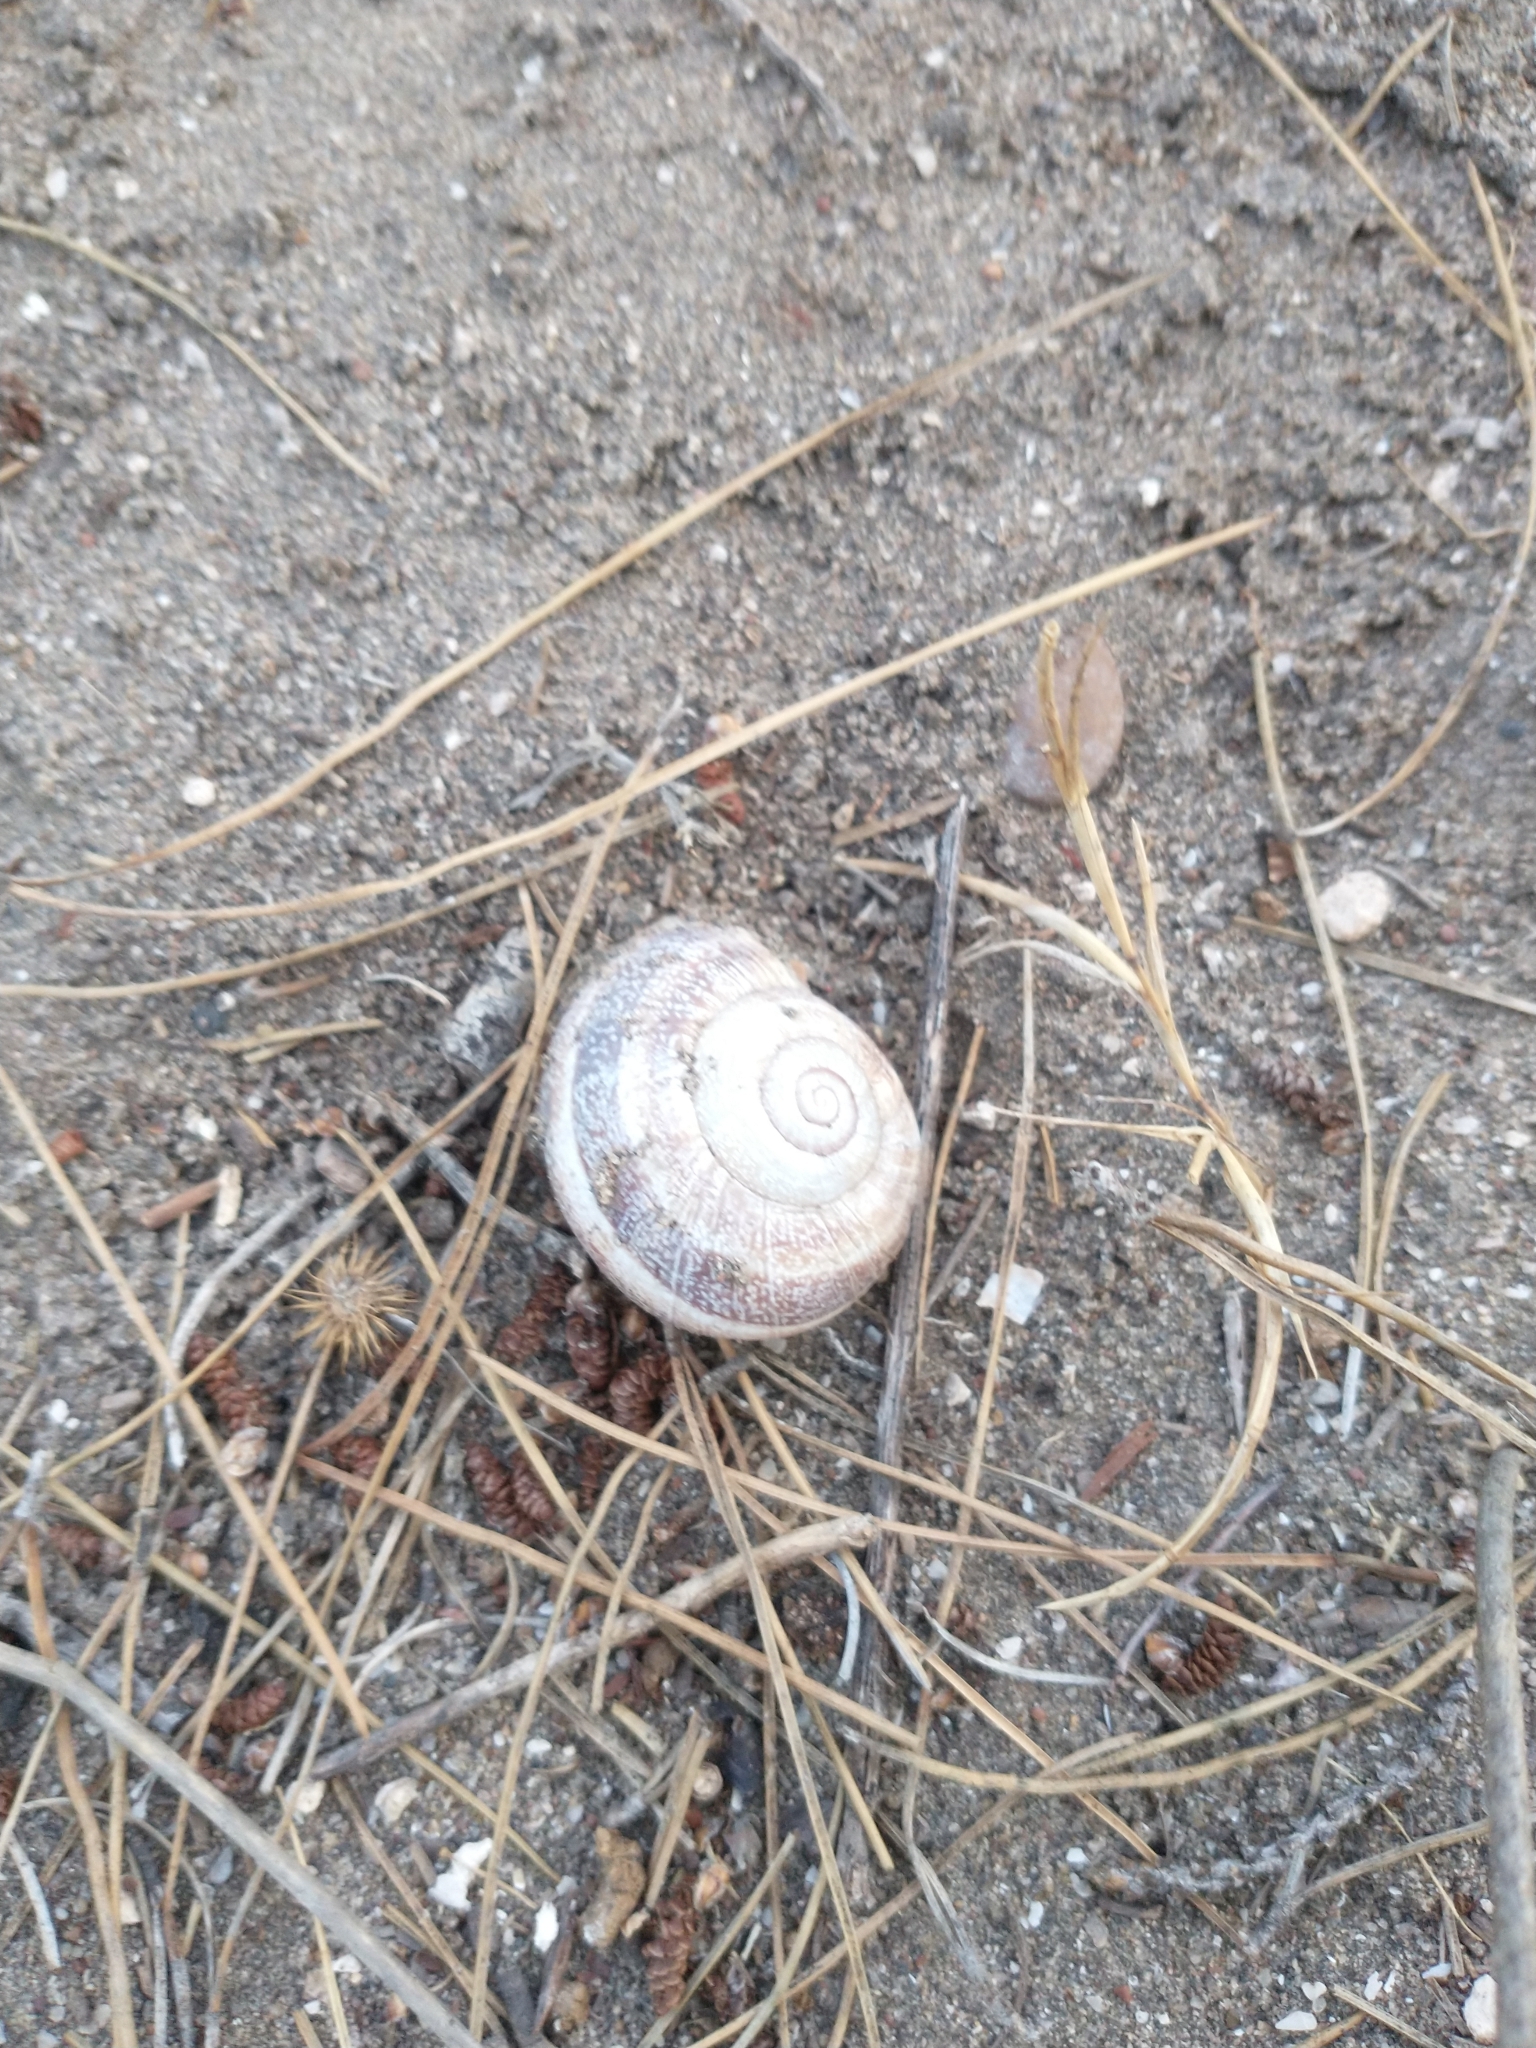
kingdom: Animalia
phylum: Mollusca
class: Gastropoda
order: Stylommatophora
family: Helicidae
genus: Otala
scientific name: Otala punctata
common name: Milk snail
